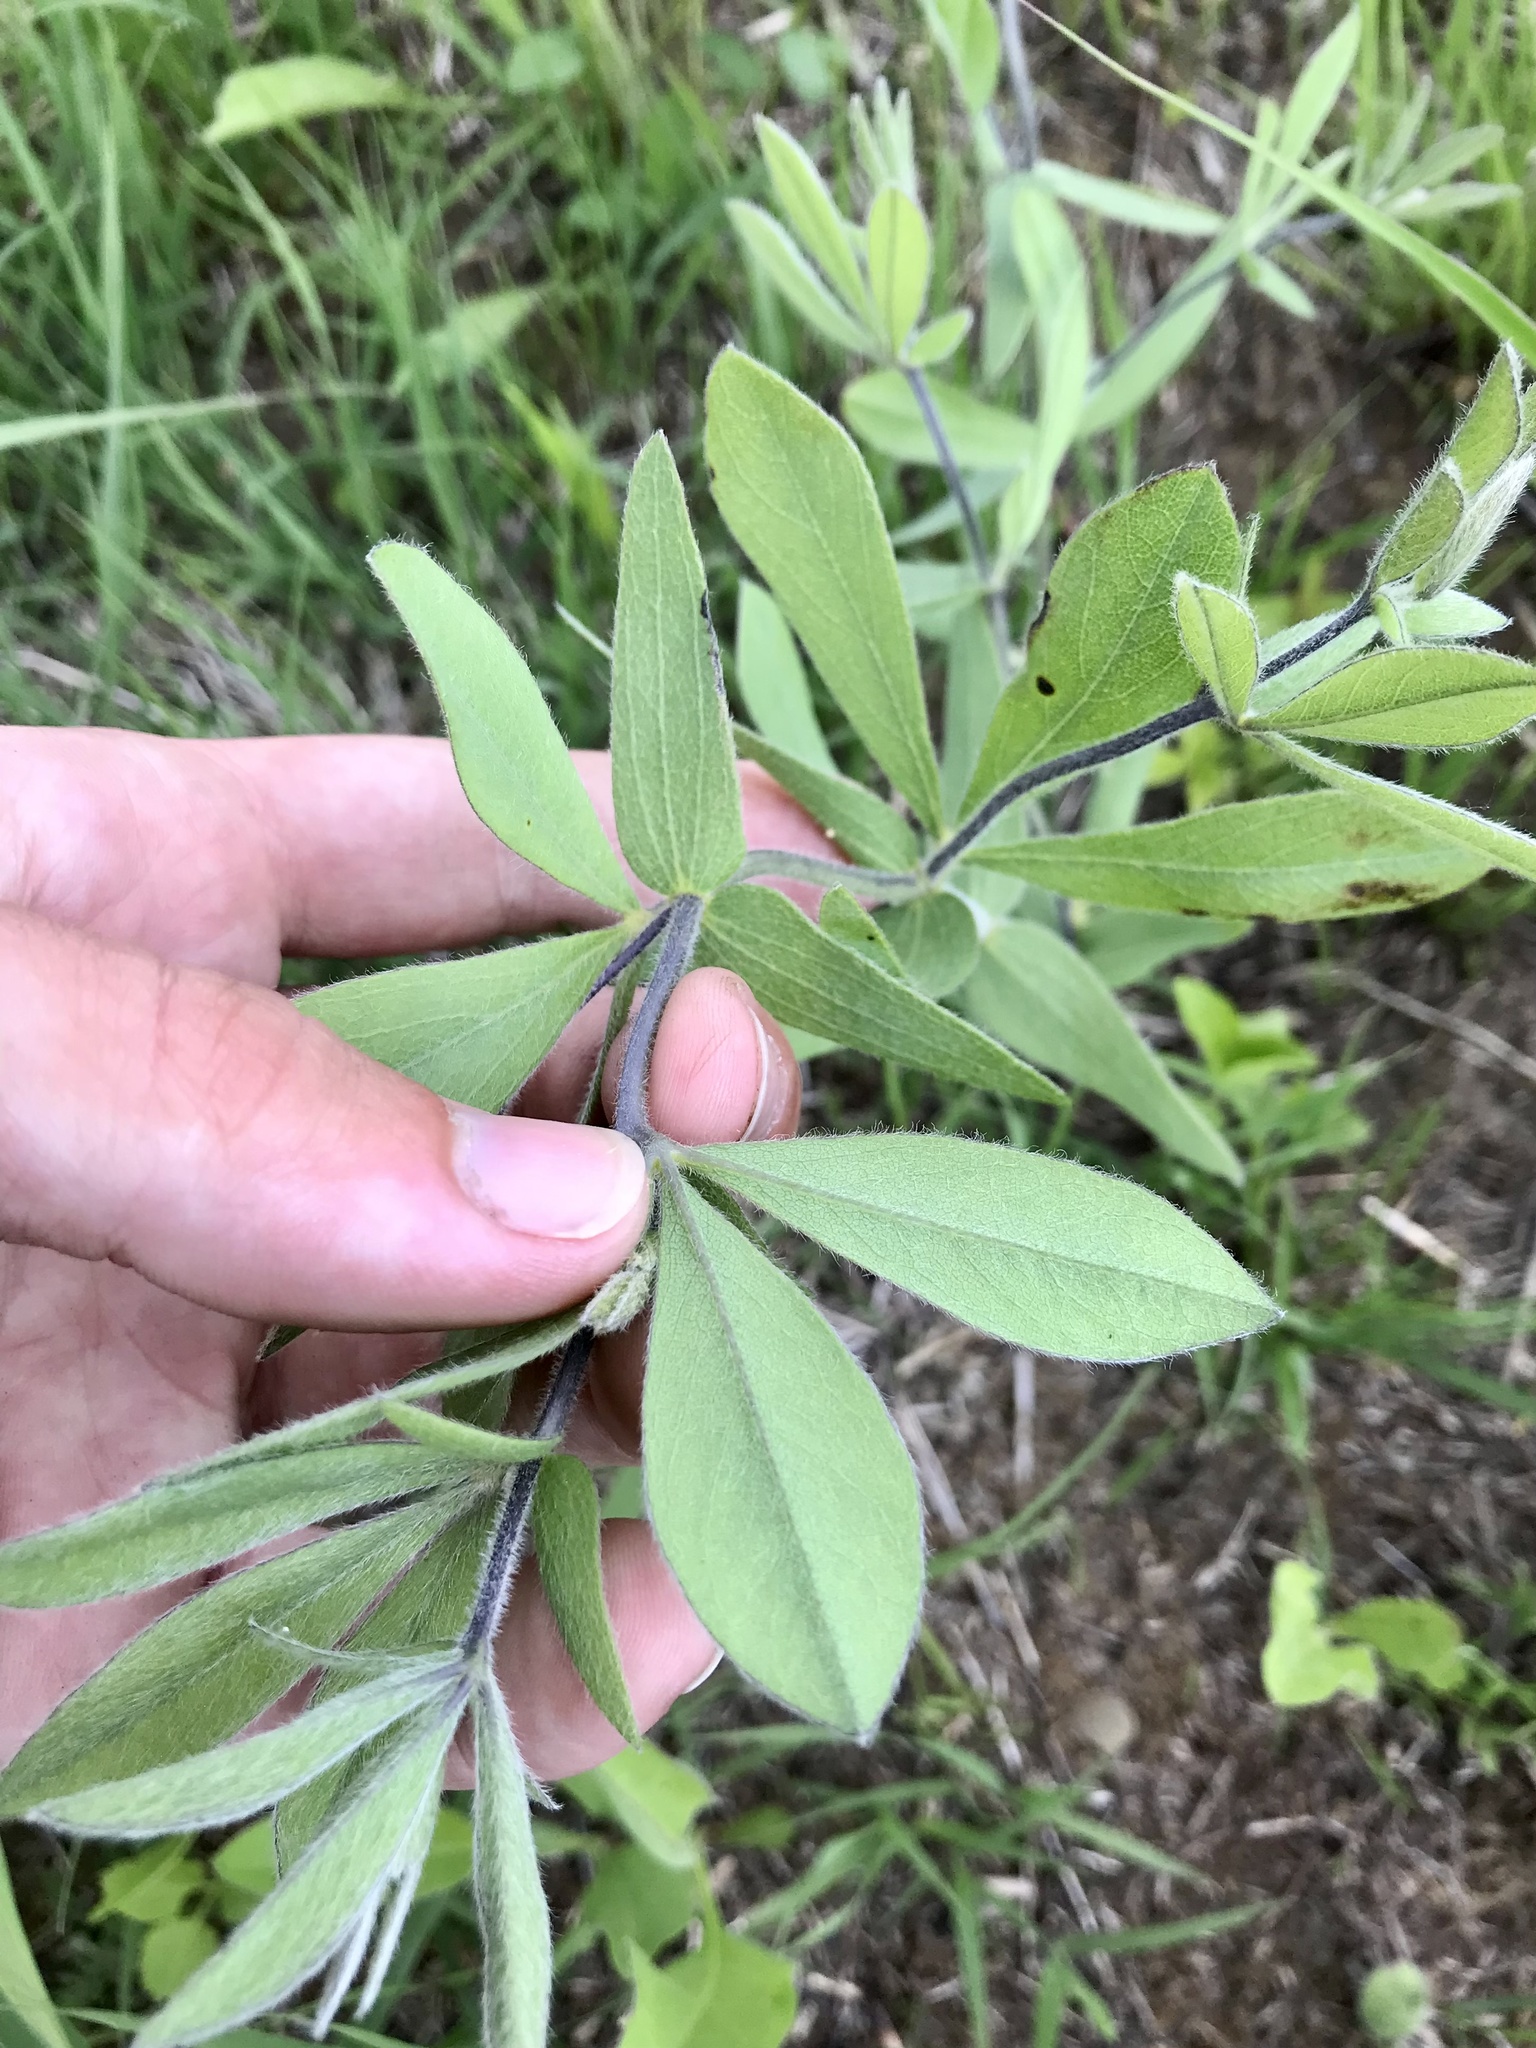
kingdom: Plantae
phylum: Tracheophyta
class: Magnoliopsida
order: Fabales
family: Fabaceae
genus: Baptisia
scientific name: Baptisia bracteata
